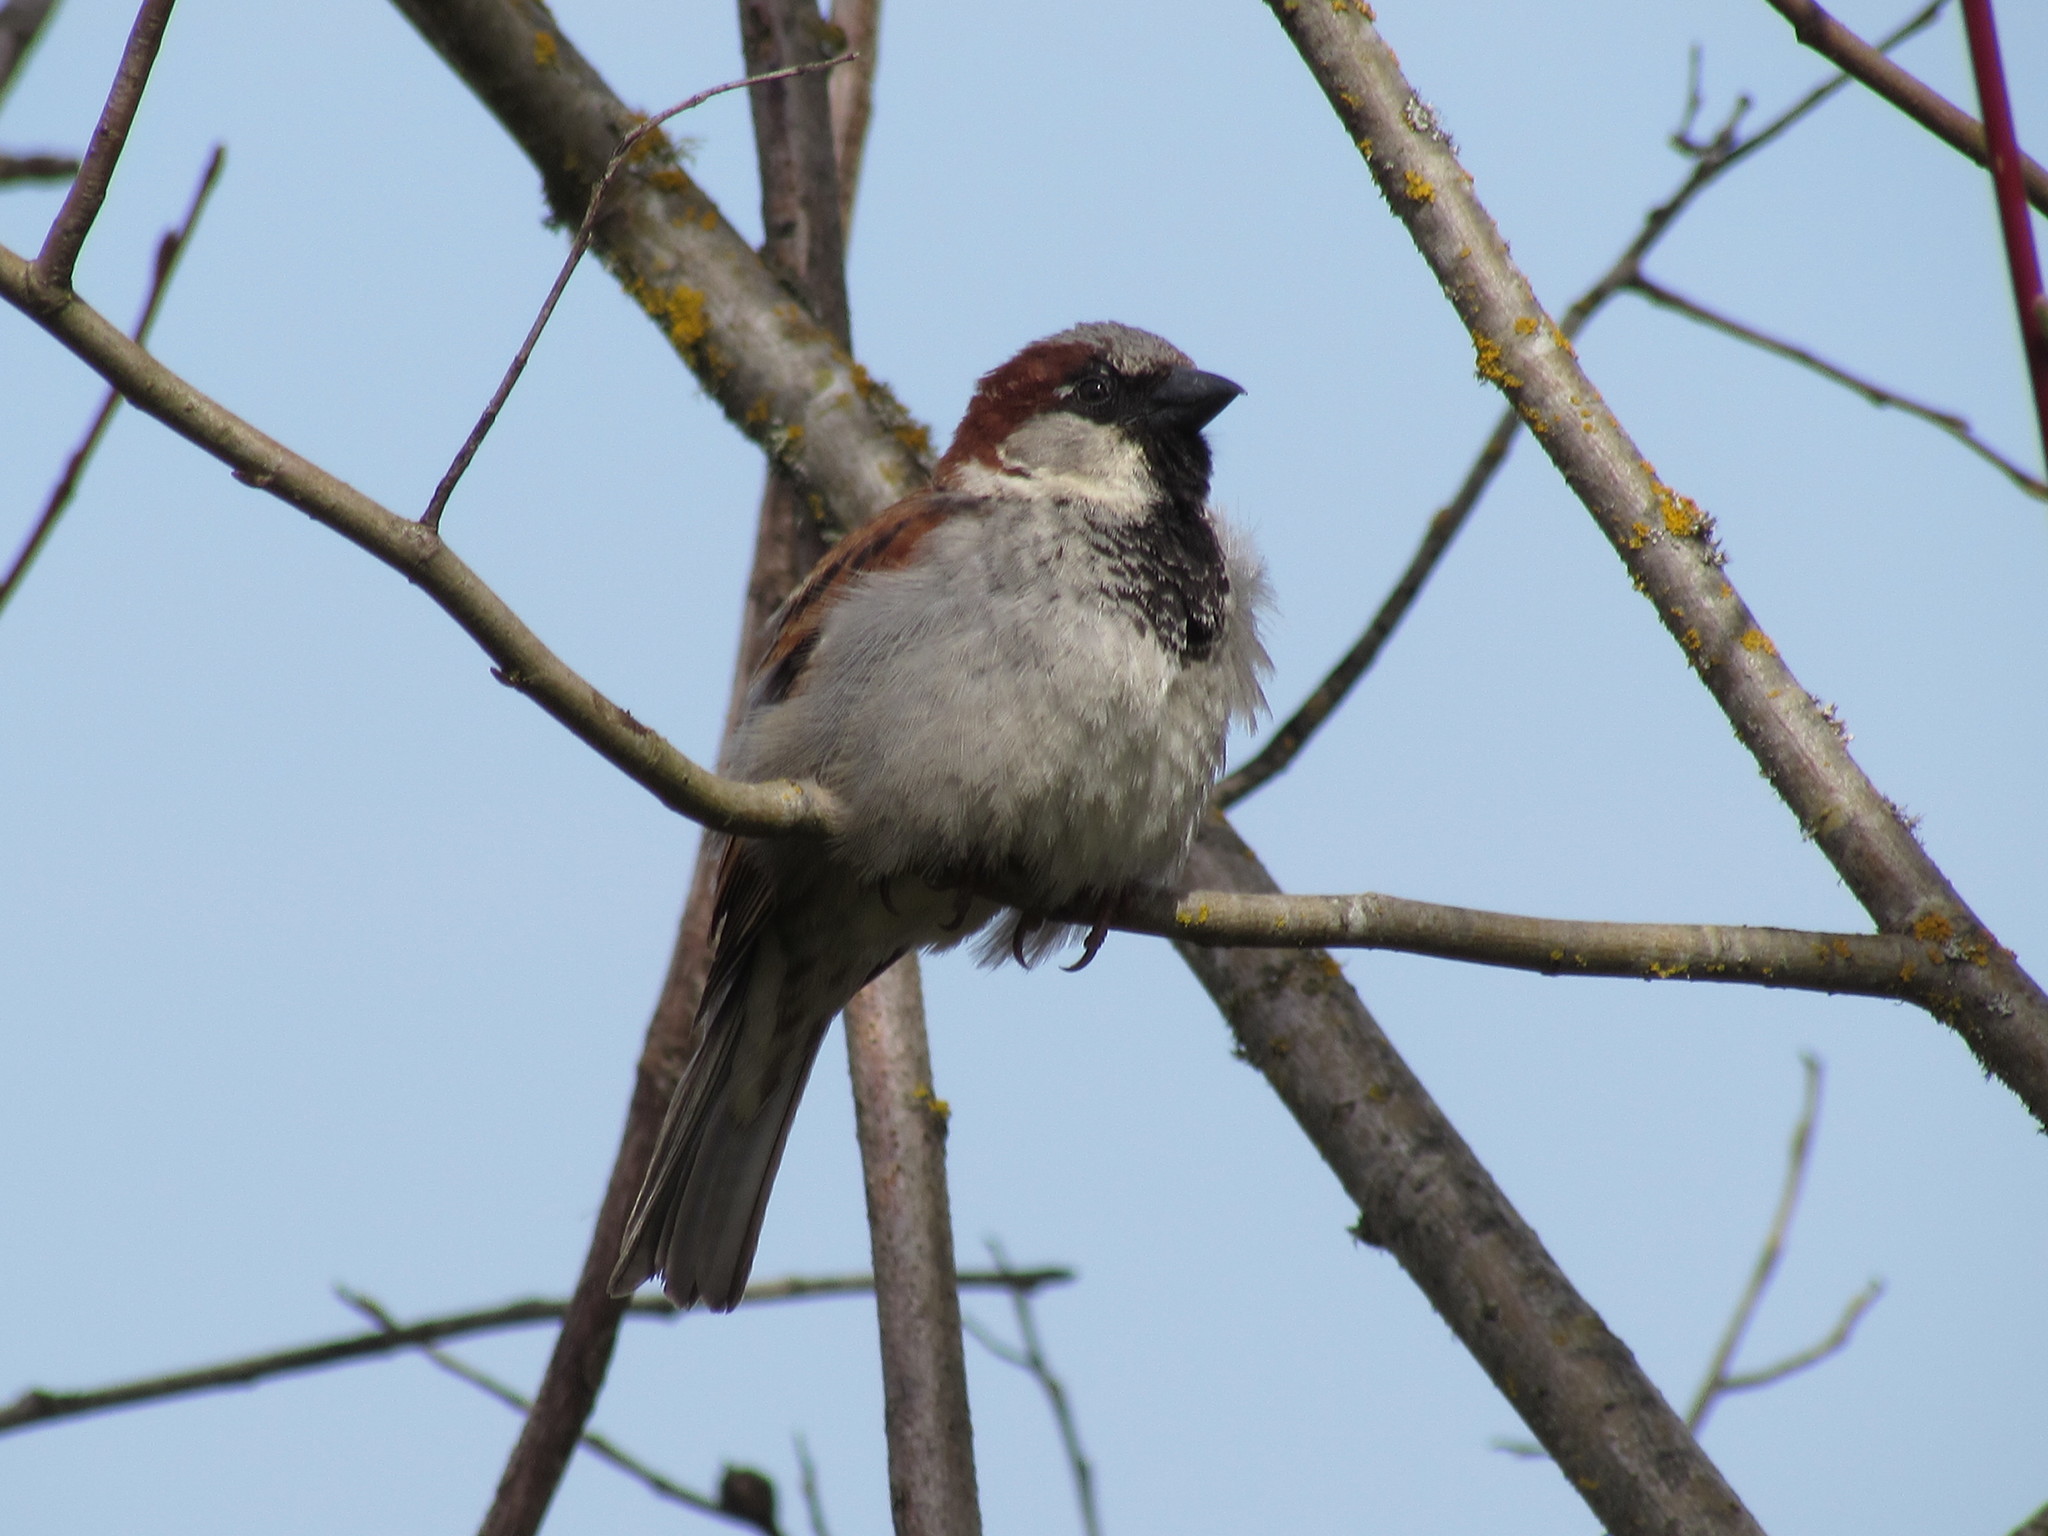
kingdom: Animalia
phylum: Chordata
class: Aves
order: Passeriformes
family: Passeridae
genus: Passer
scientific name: Passer domesticus
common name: House sparrow
